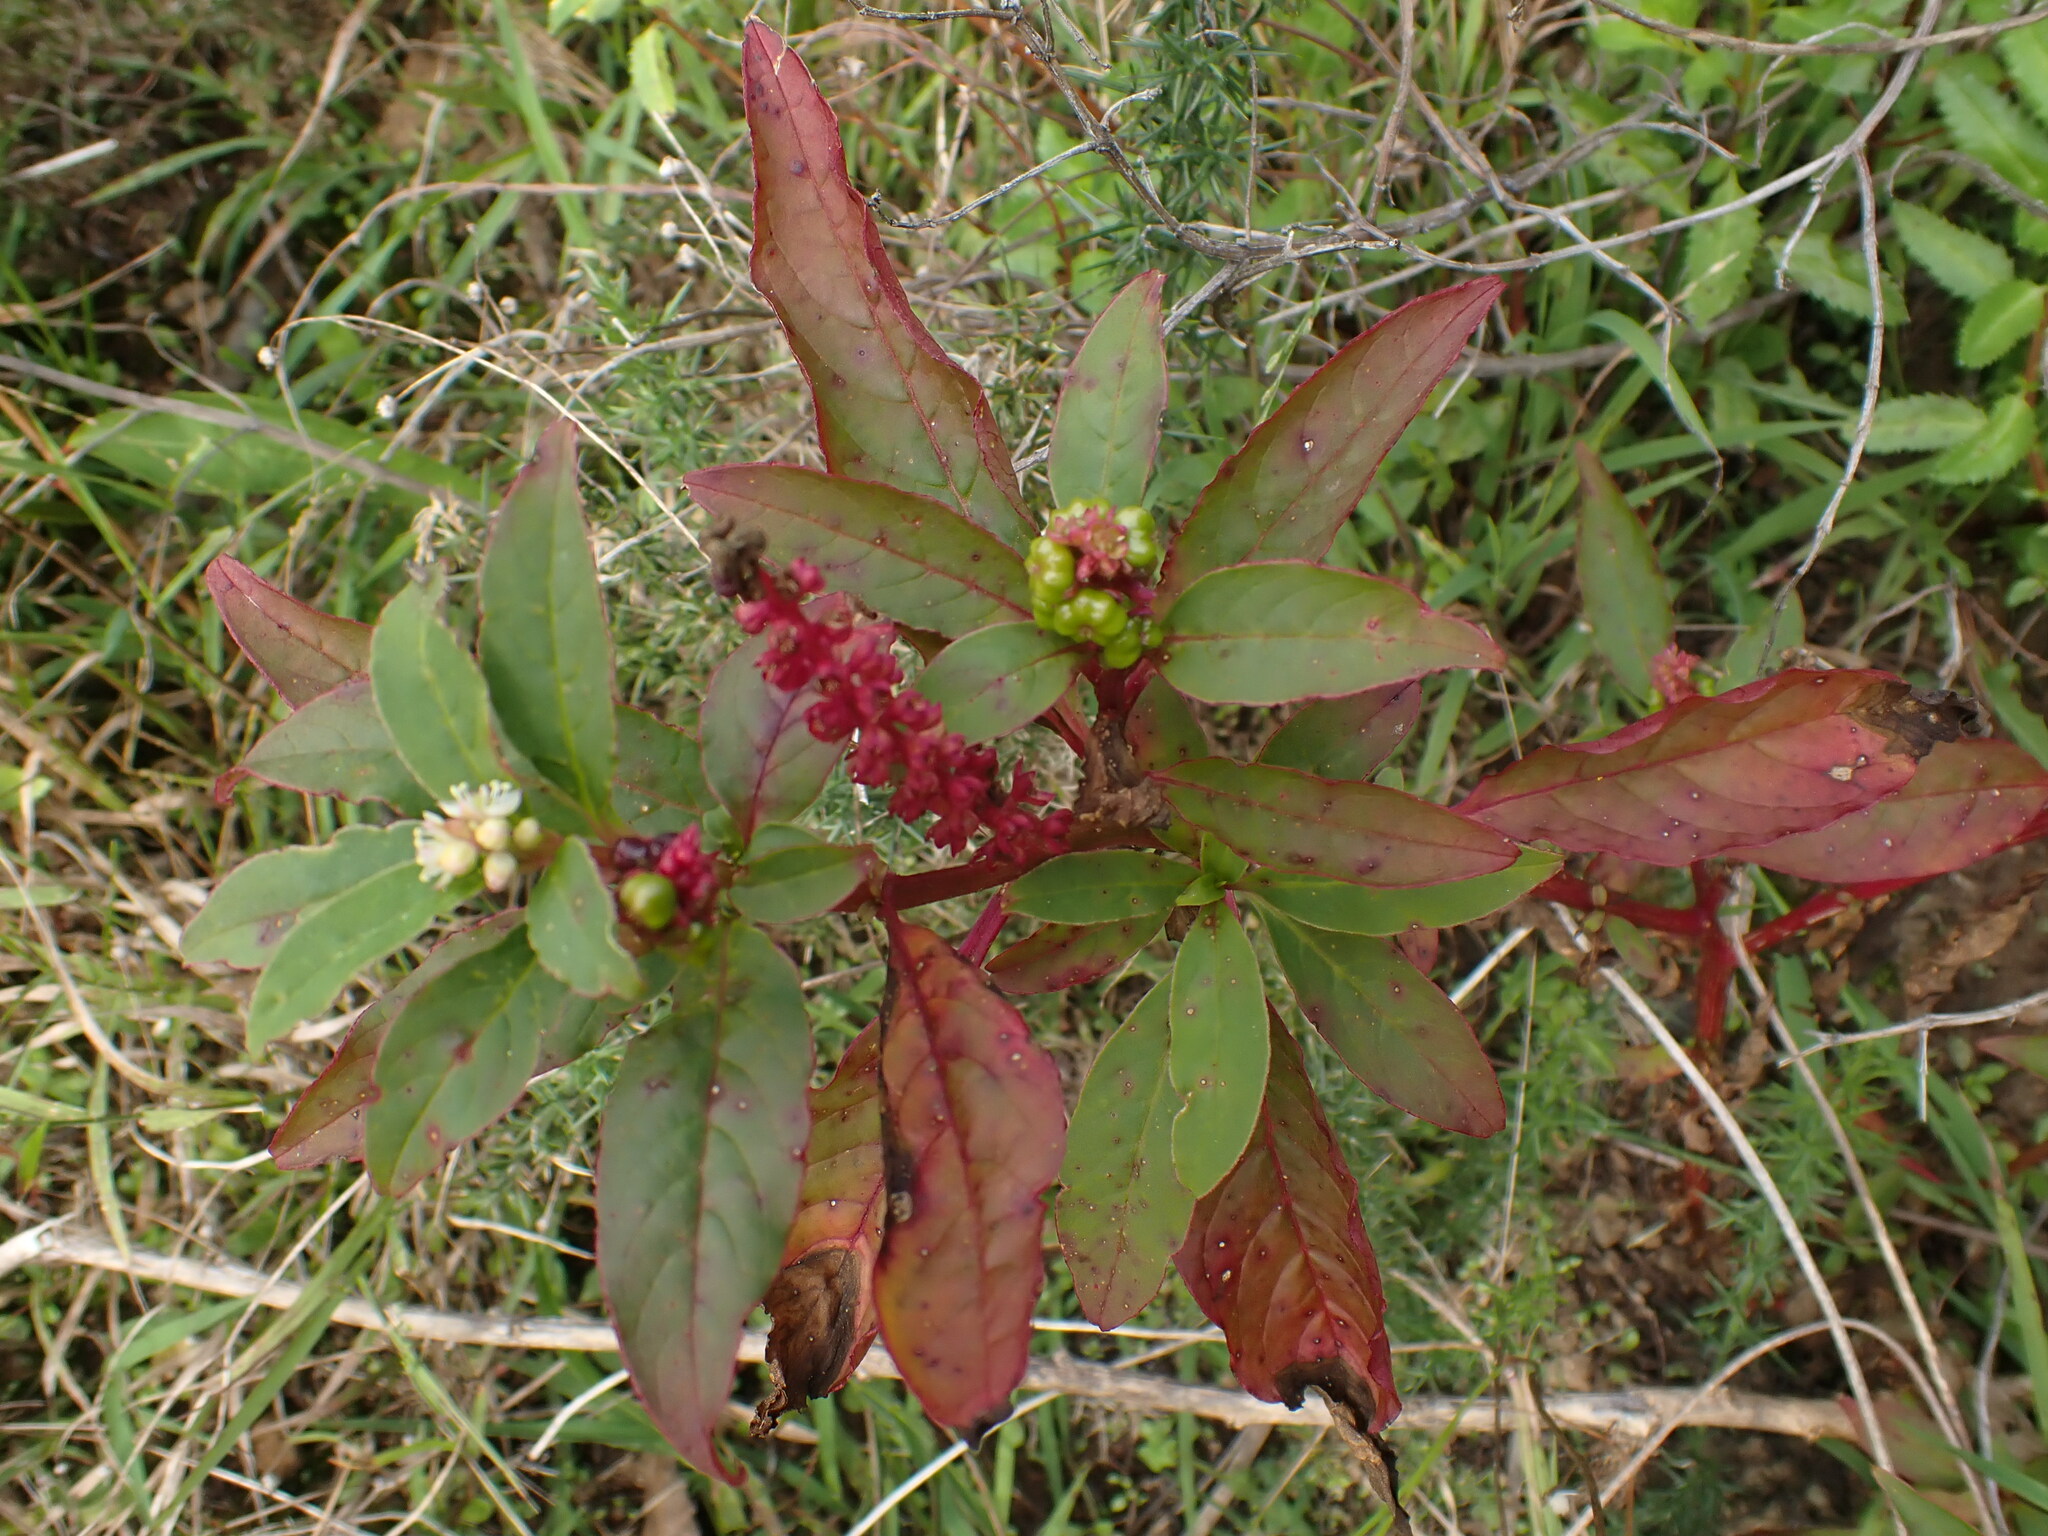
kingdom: Plantae
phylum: Tracheophyta
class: Magnoliopsida
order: Caryophyllales
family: Phytolaccaceae
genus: Phytolacca
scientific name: Phytolacca icosandra
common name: Button pokeweed
